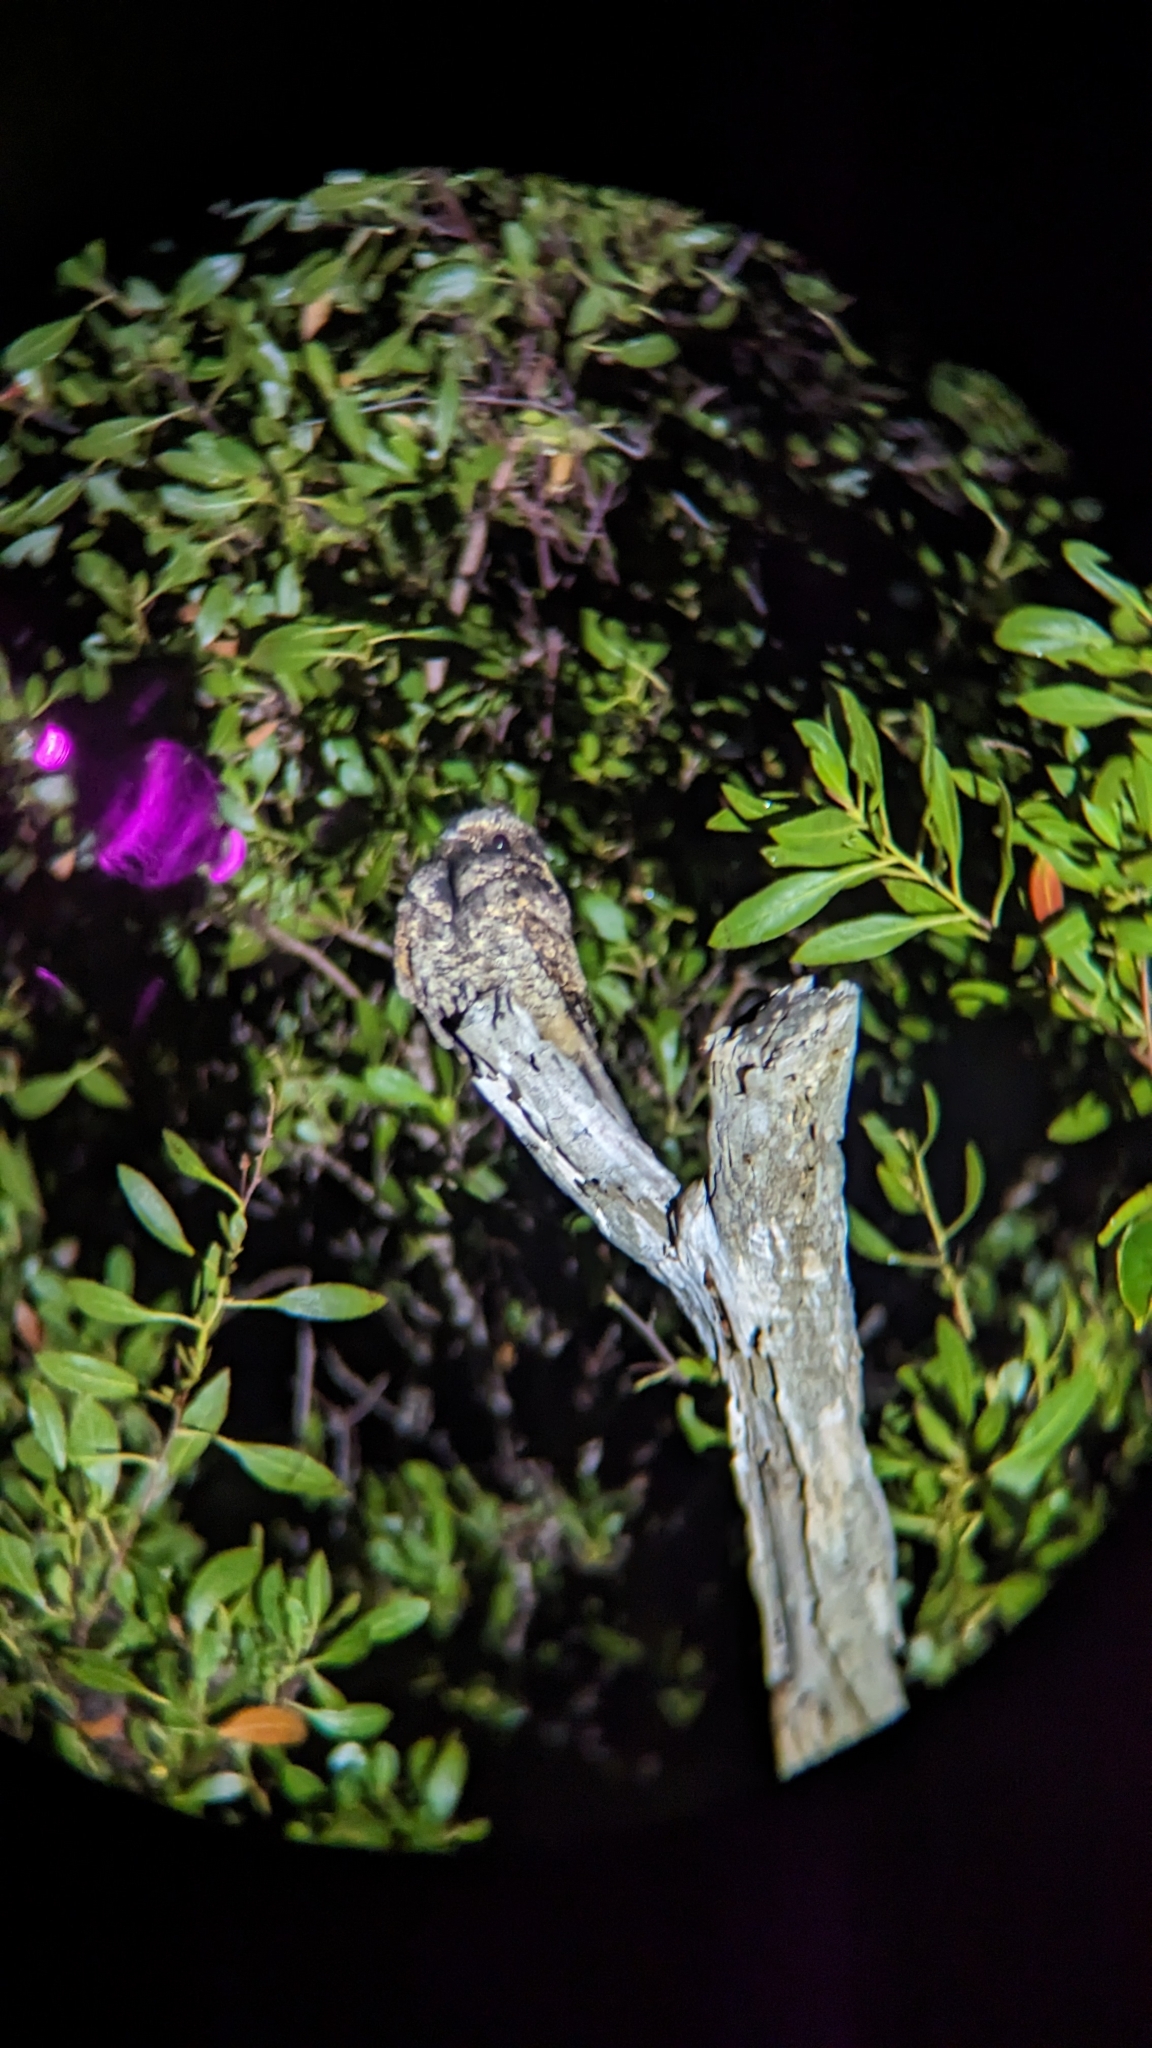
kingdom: Animalia
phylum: Chordata
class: Aves
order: Caprimulgiformes
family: Caprimulgidae
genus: Antrostomus
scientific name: Antrostomus vociferus
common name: Eastern whip-poor-will
